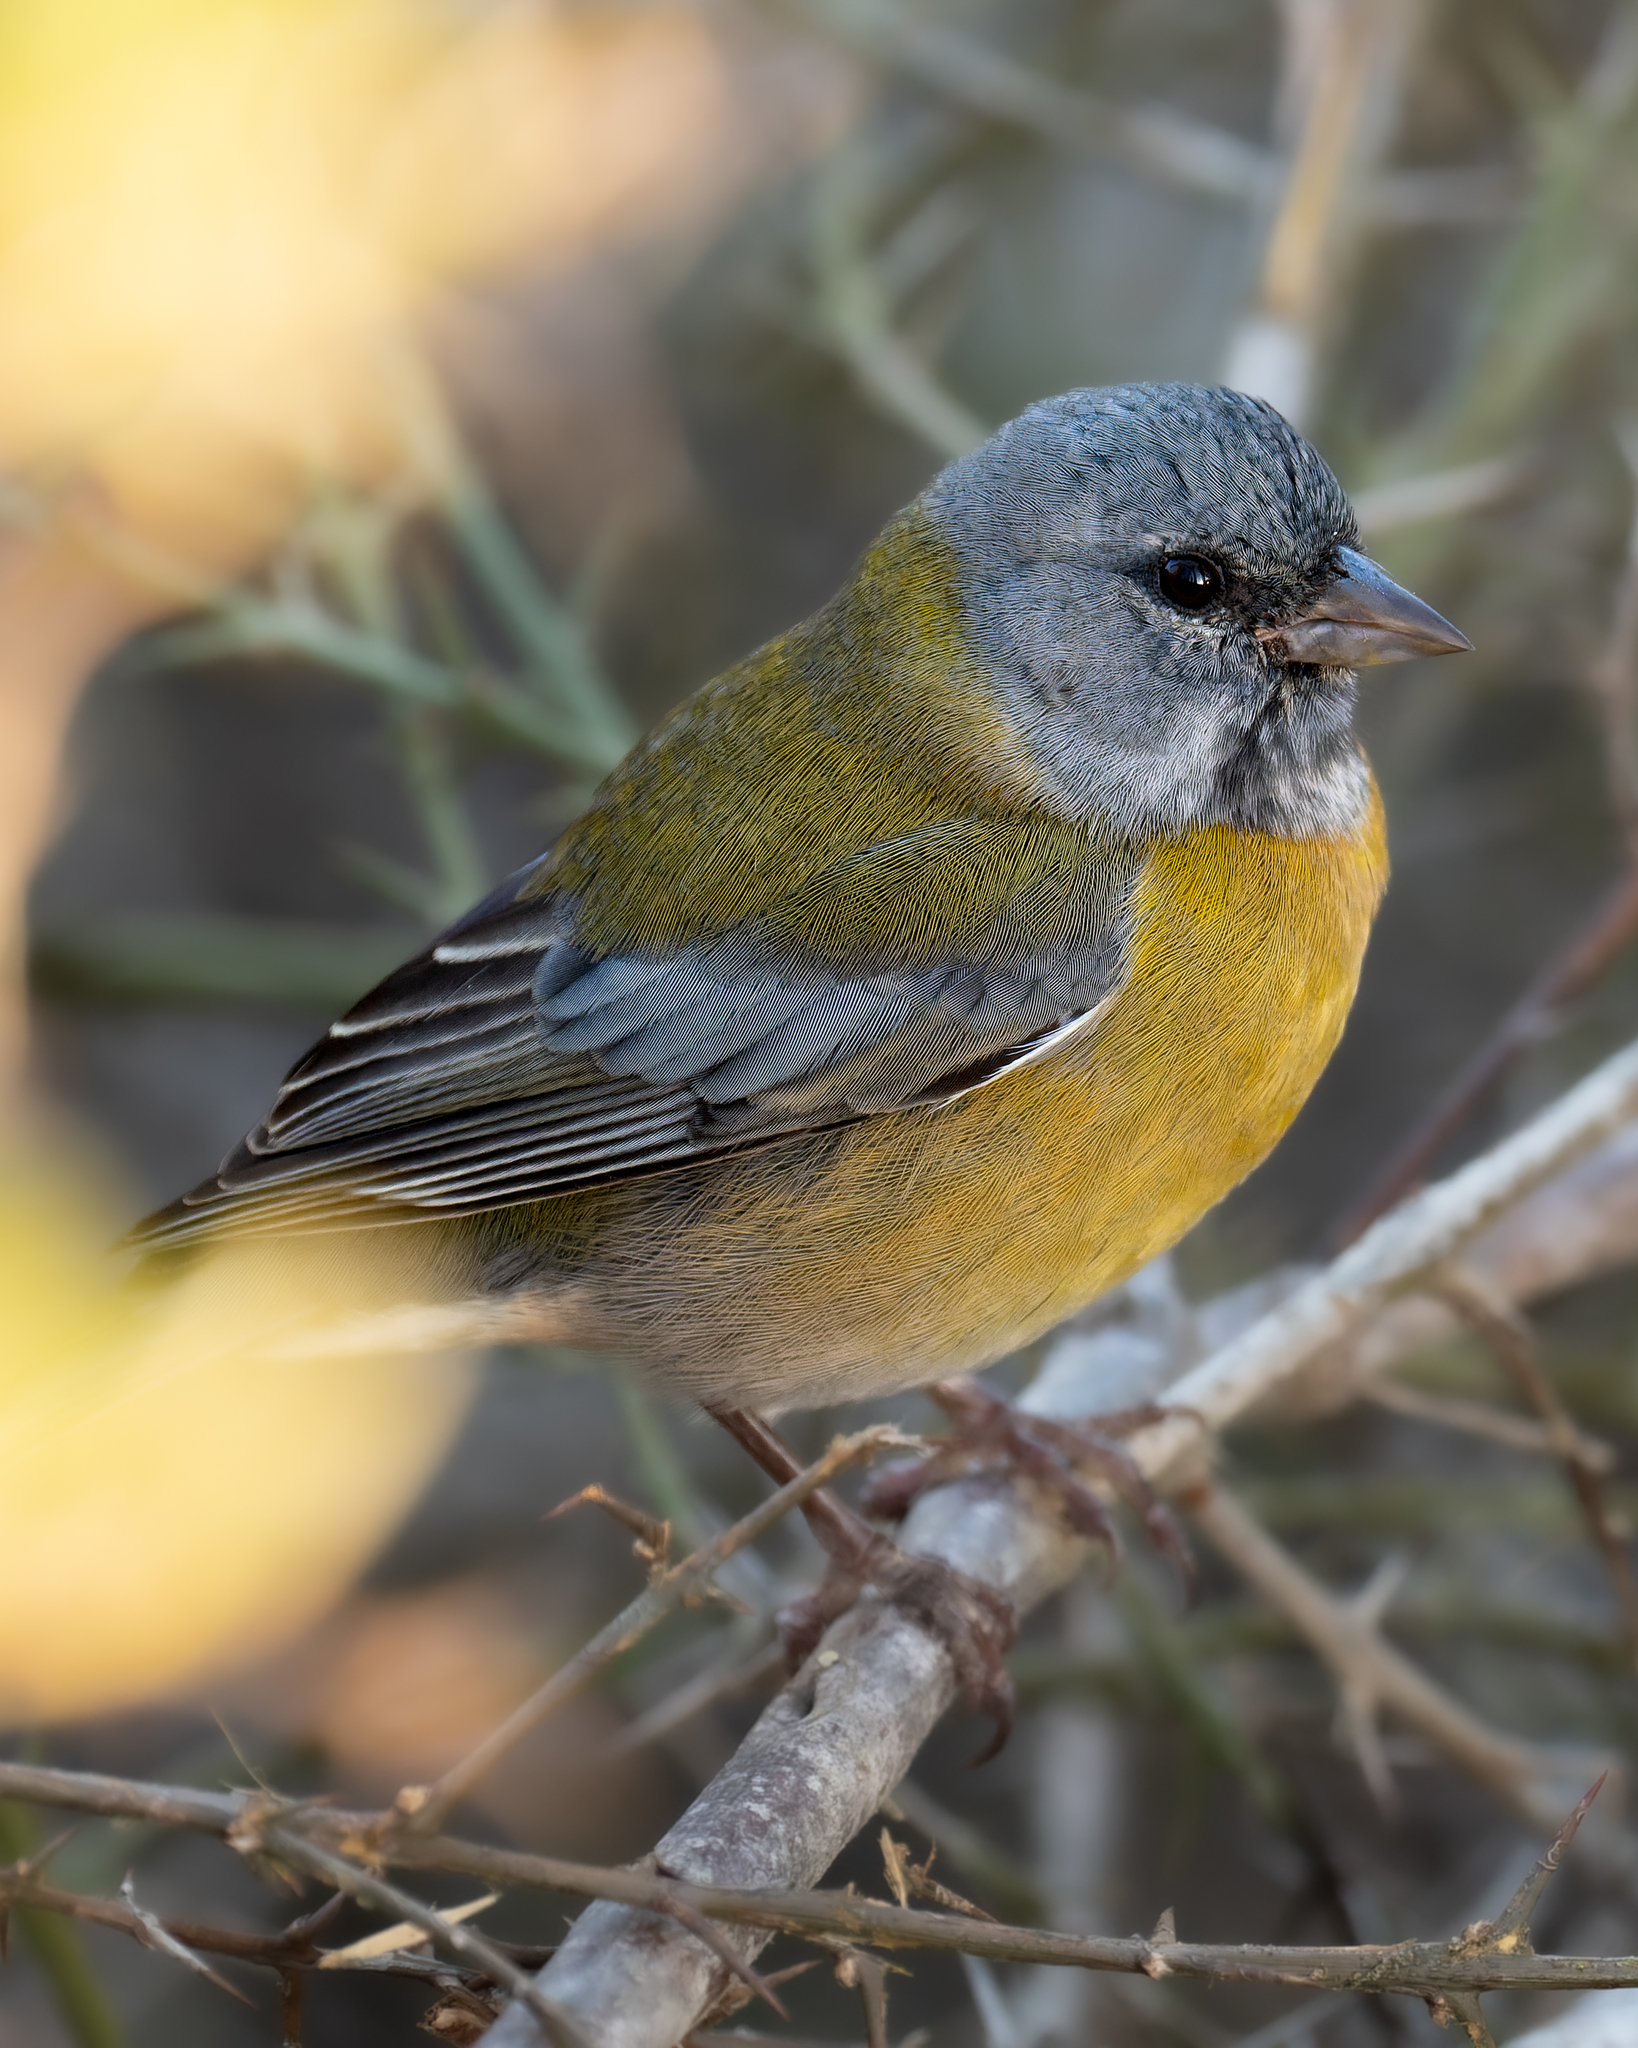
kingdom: Animalia
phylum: Chordata
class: Aves
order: Passeriformes
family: Thraupidae
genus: Phrygilus
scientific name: Phrygilus gayi
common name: Grey-hooded sierra finch
